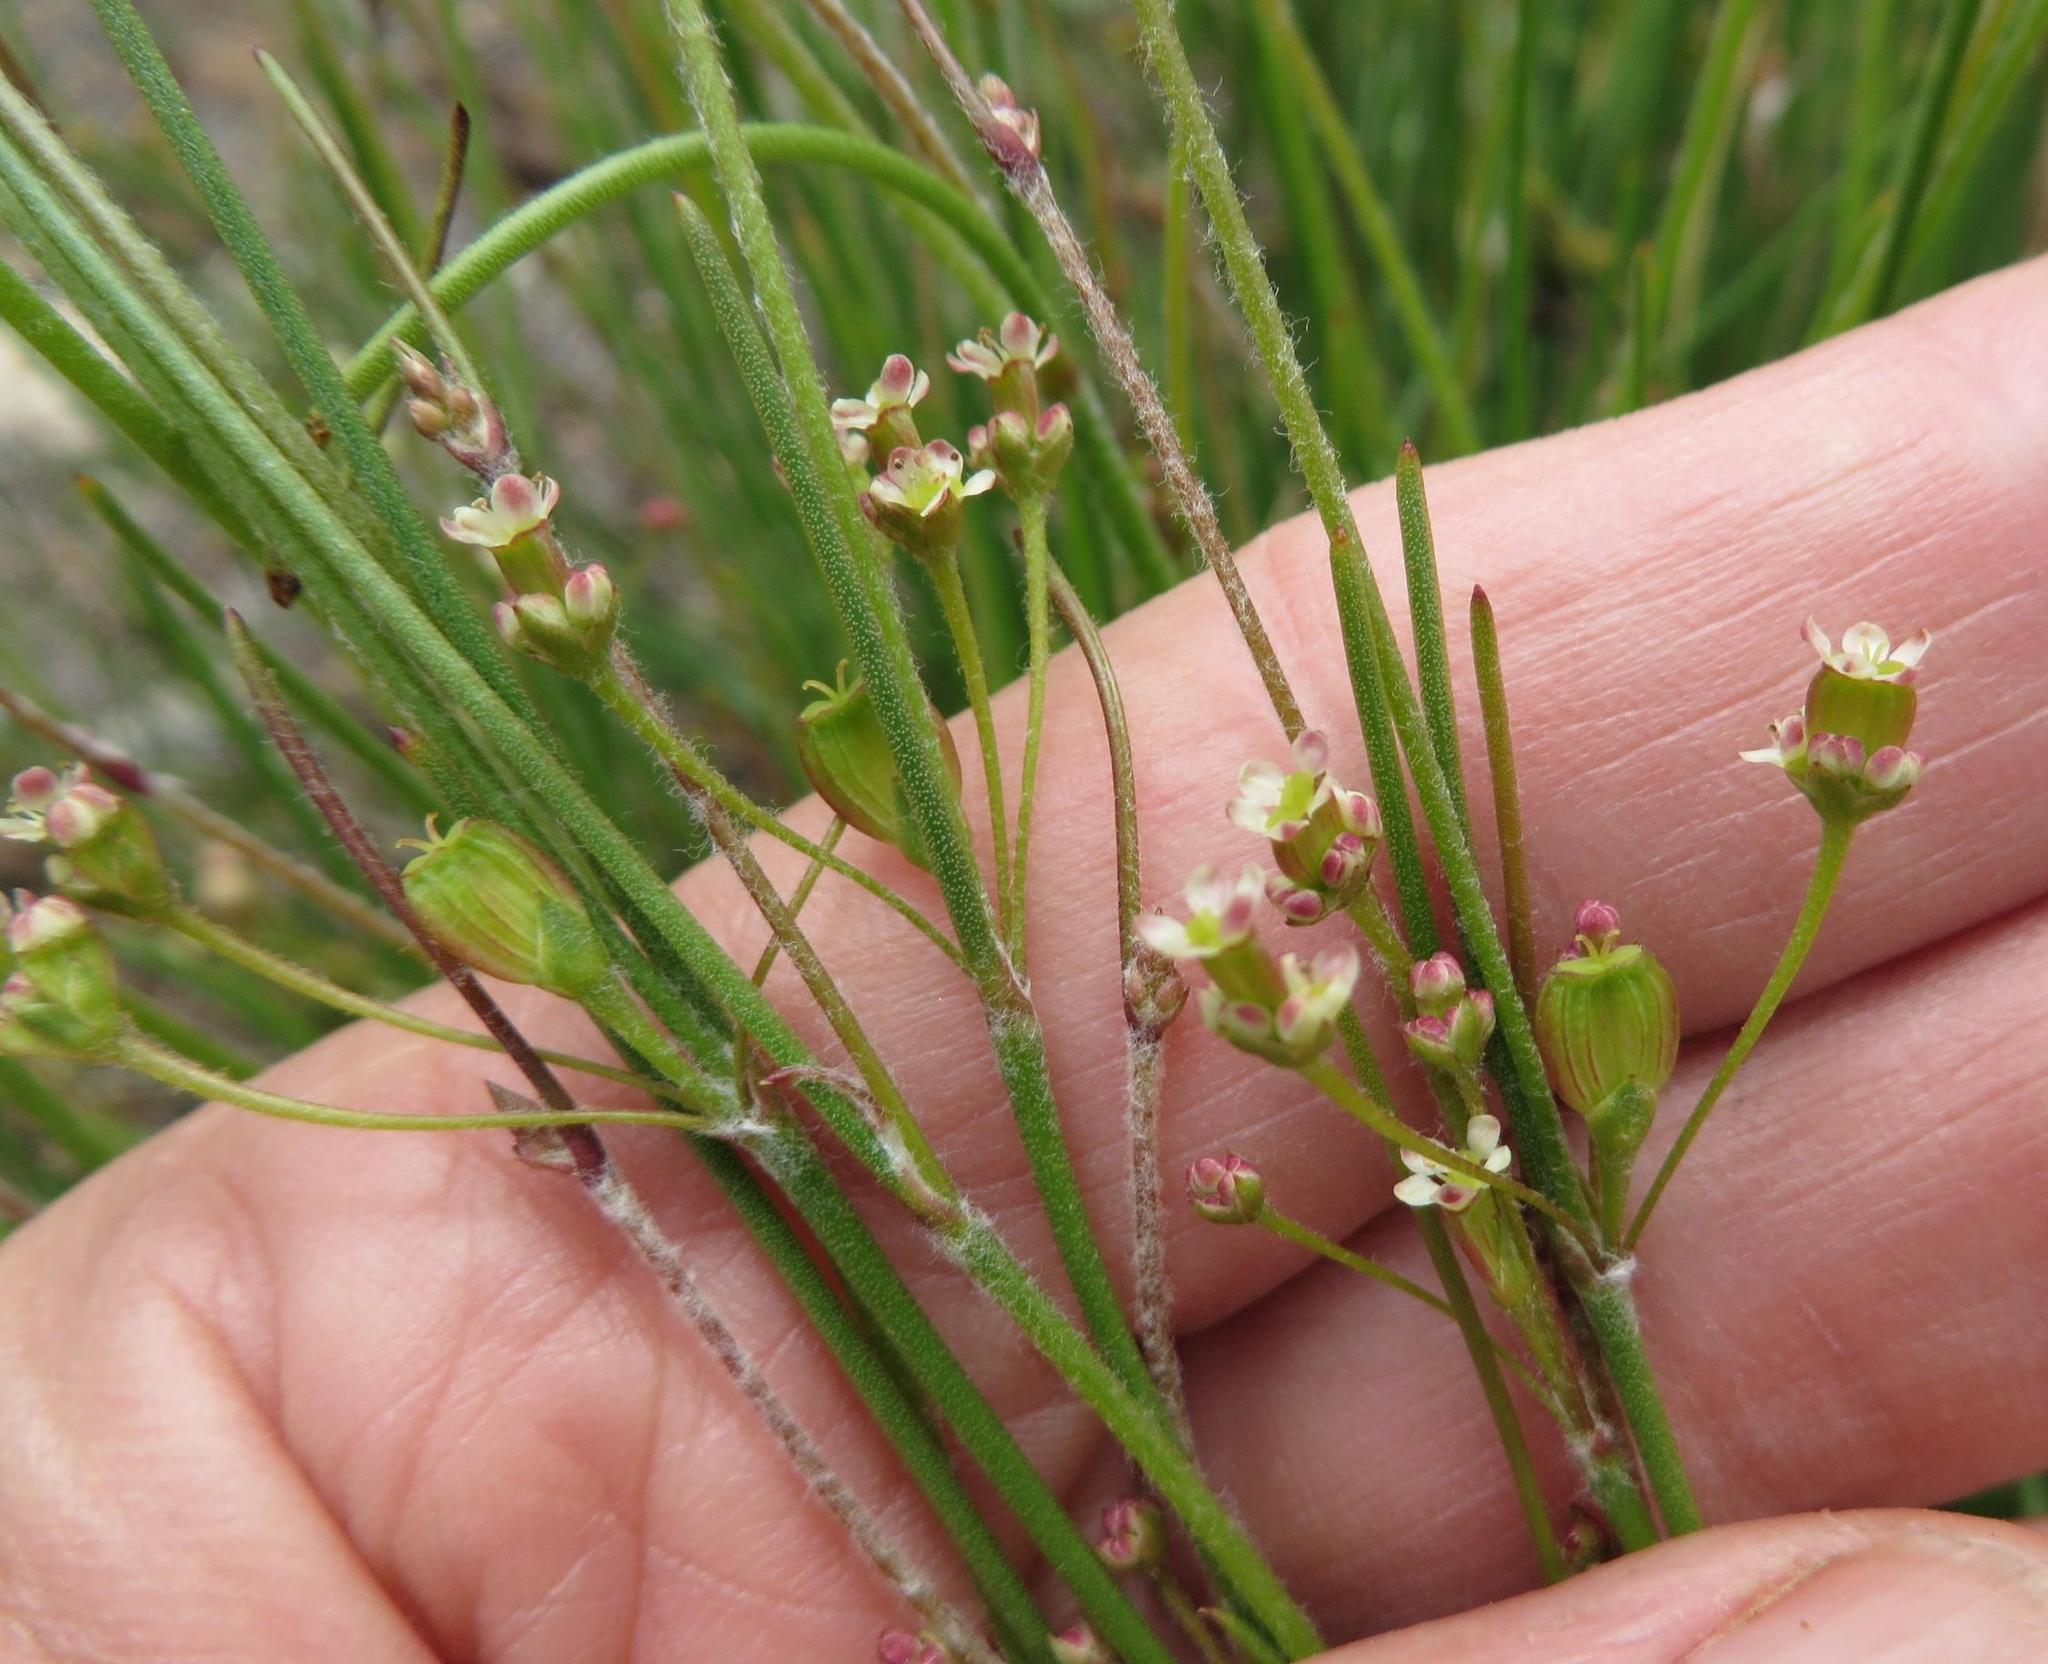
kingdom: Plantae
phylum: Tracheophyta
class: Magnoliopsida
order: Apiales
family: Apiaceae
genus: Centella
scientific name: Centella virgata
